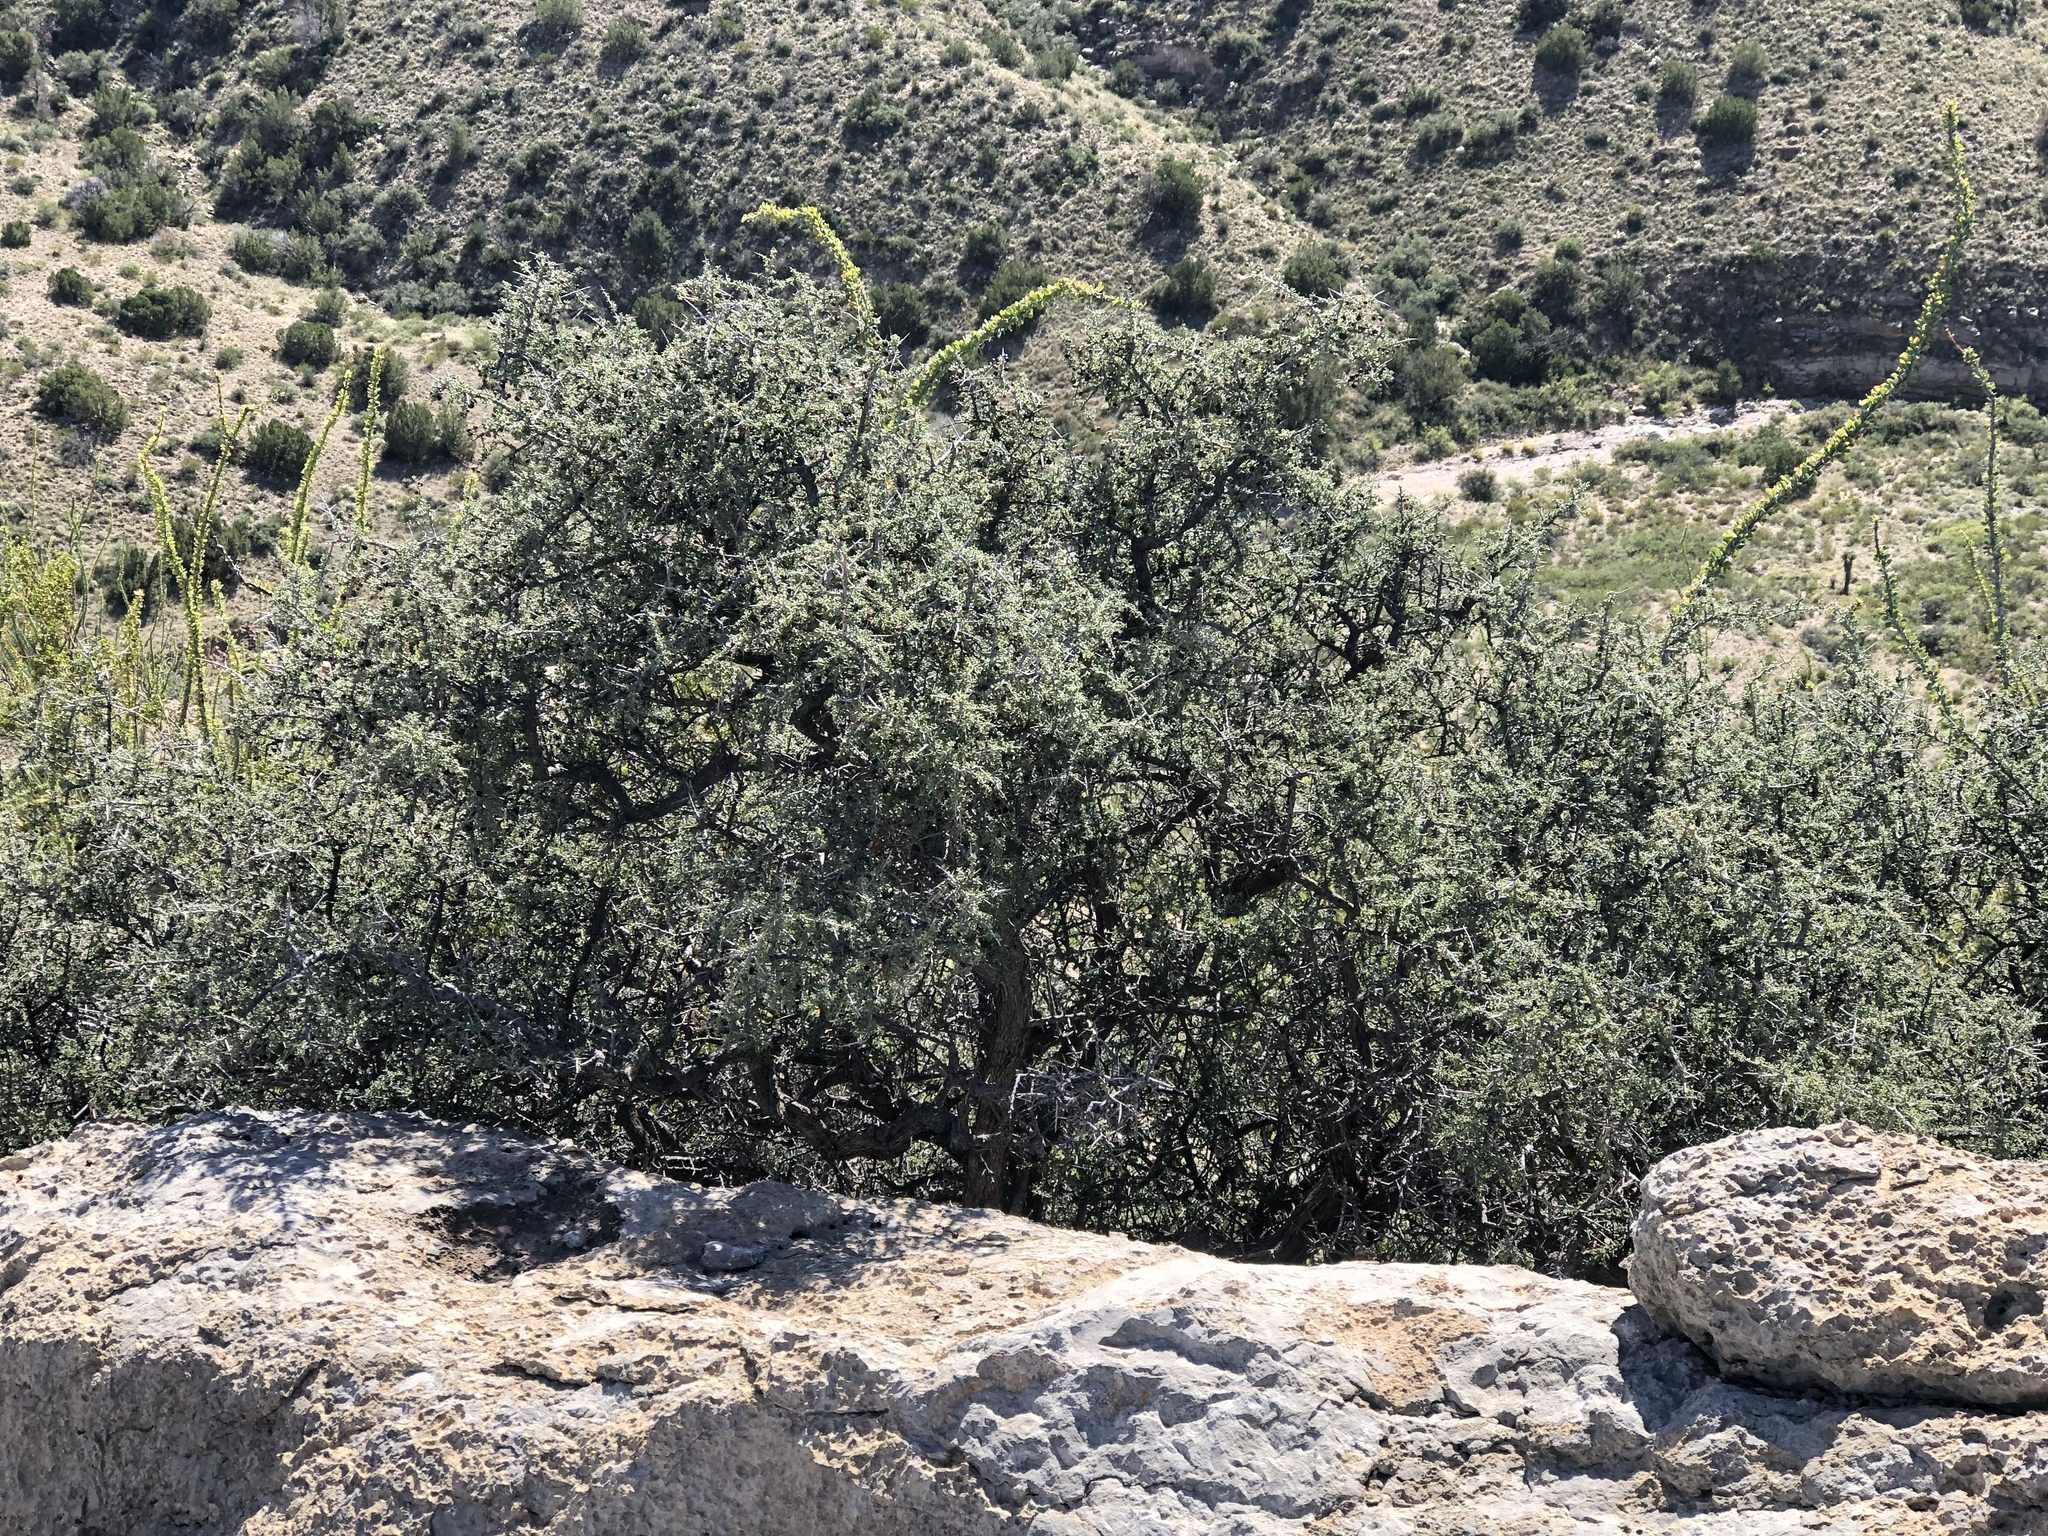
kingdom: Plantae
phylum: Tracheophyta
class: Magnoliopsida
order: Rosales
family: Rhamnaceae
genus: Condalia
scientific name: Condalia warnockii
